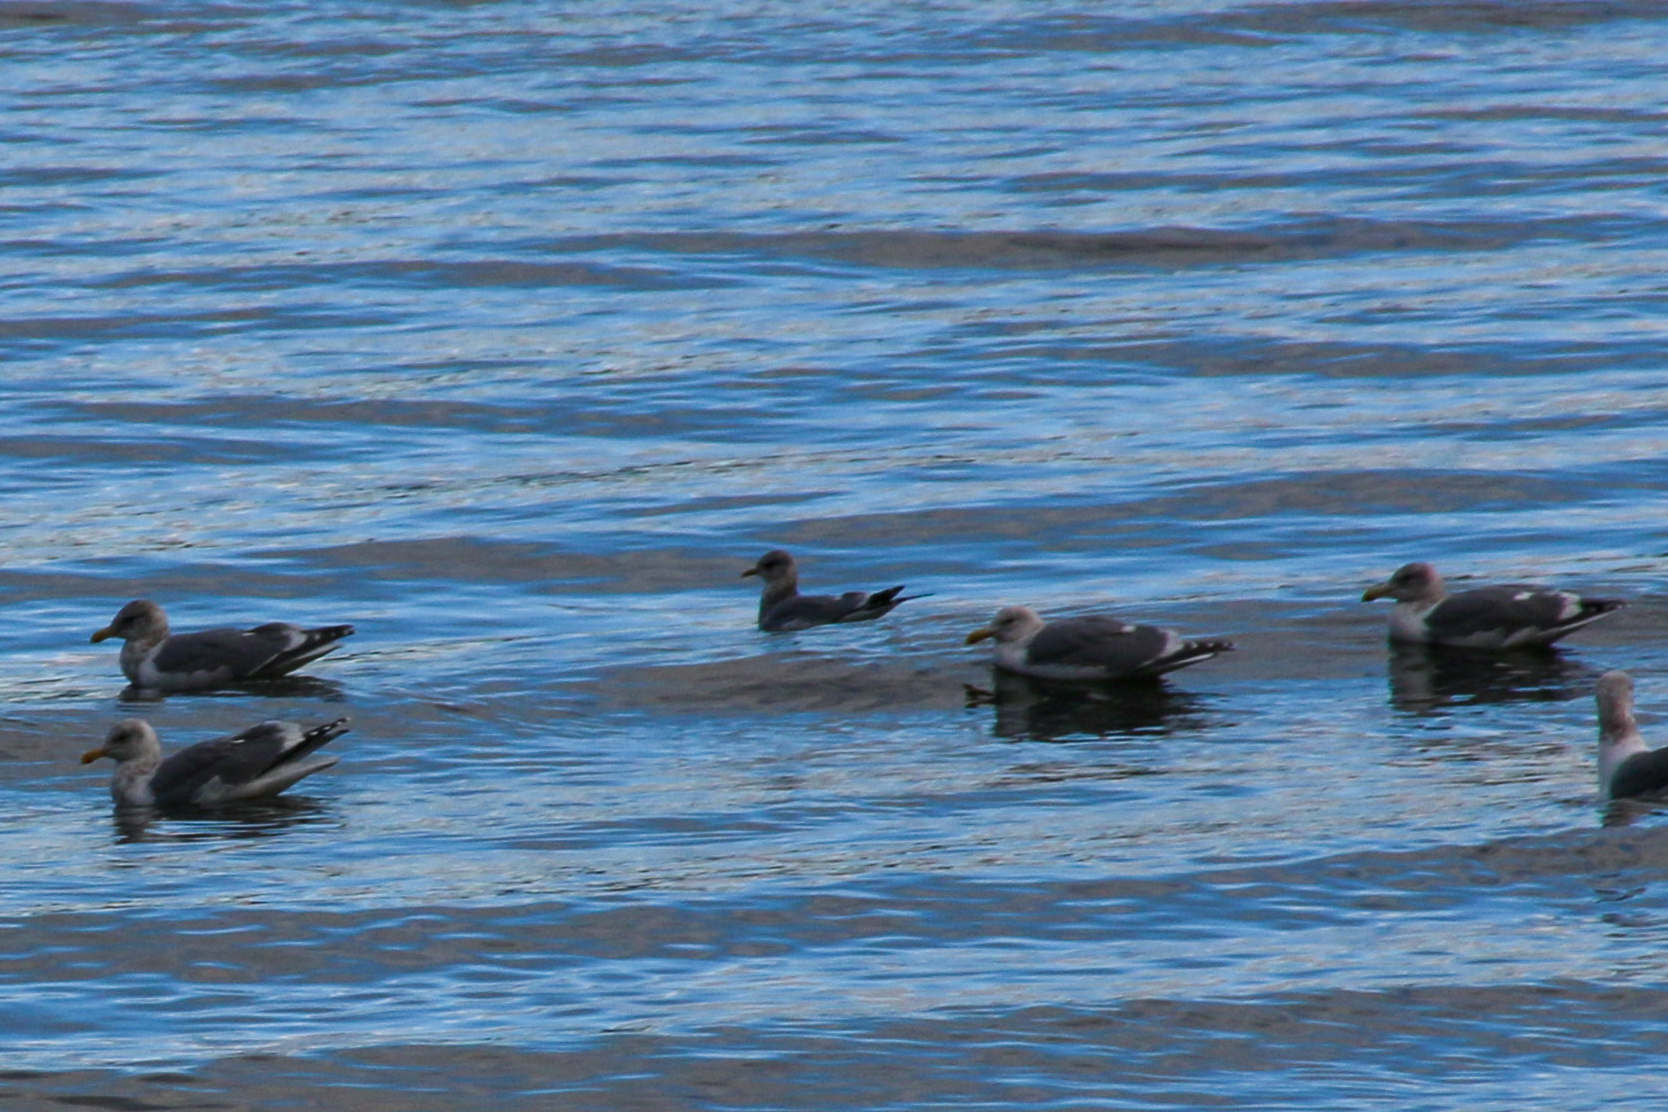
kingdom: Animalia
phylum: Chordata
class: Aves
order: Charadriiformes
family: Laridae
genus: Larus
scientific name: Larus brachyrhynchus
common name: Short-billed gull
